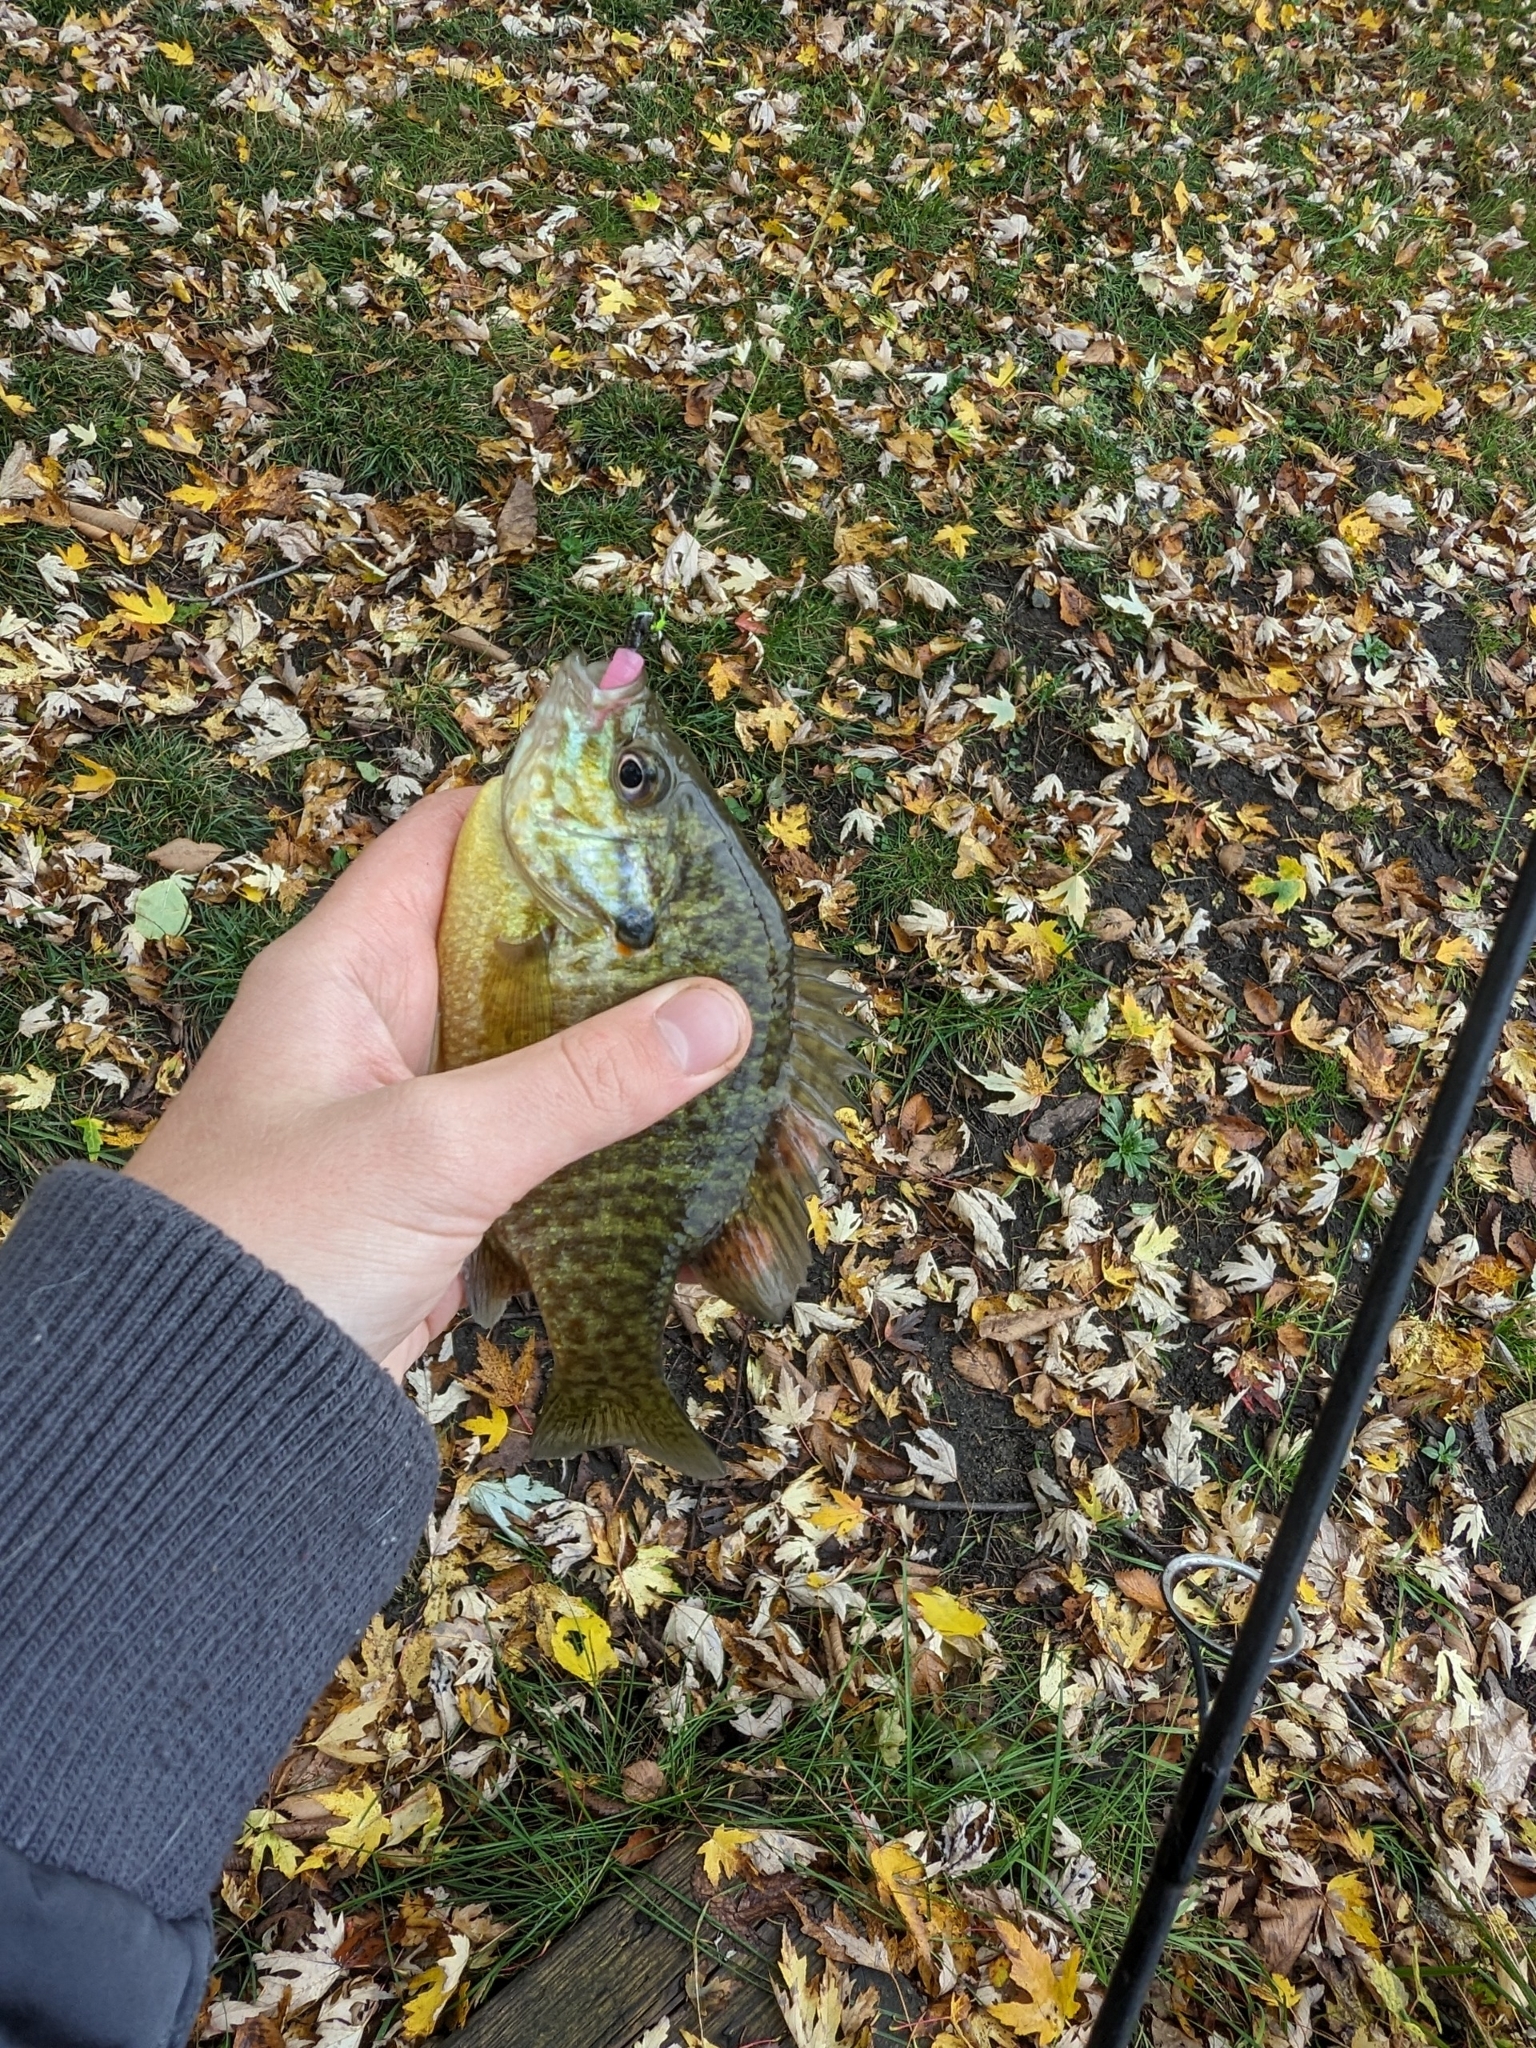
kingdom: Animalia
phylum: Chordata
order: Perciformes
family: Centrarchidae
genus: Lepomis
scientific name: Lepomis
